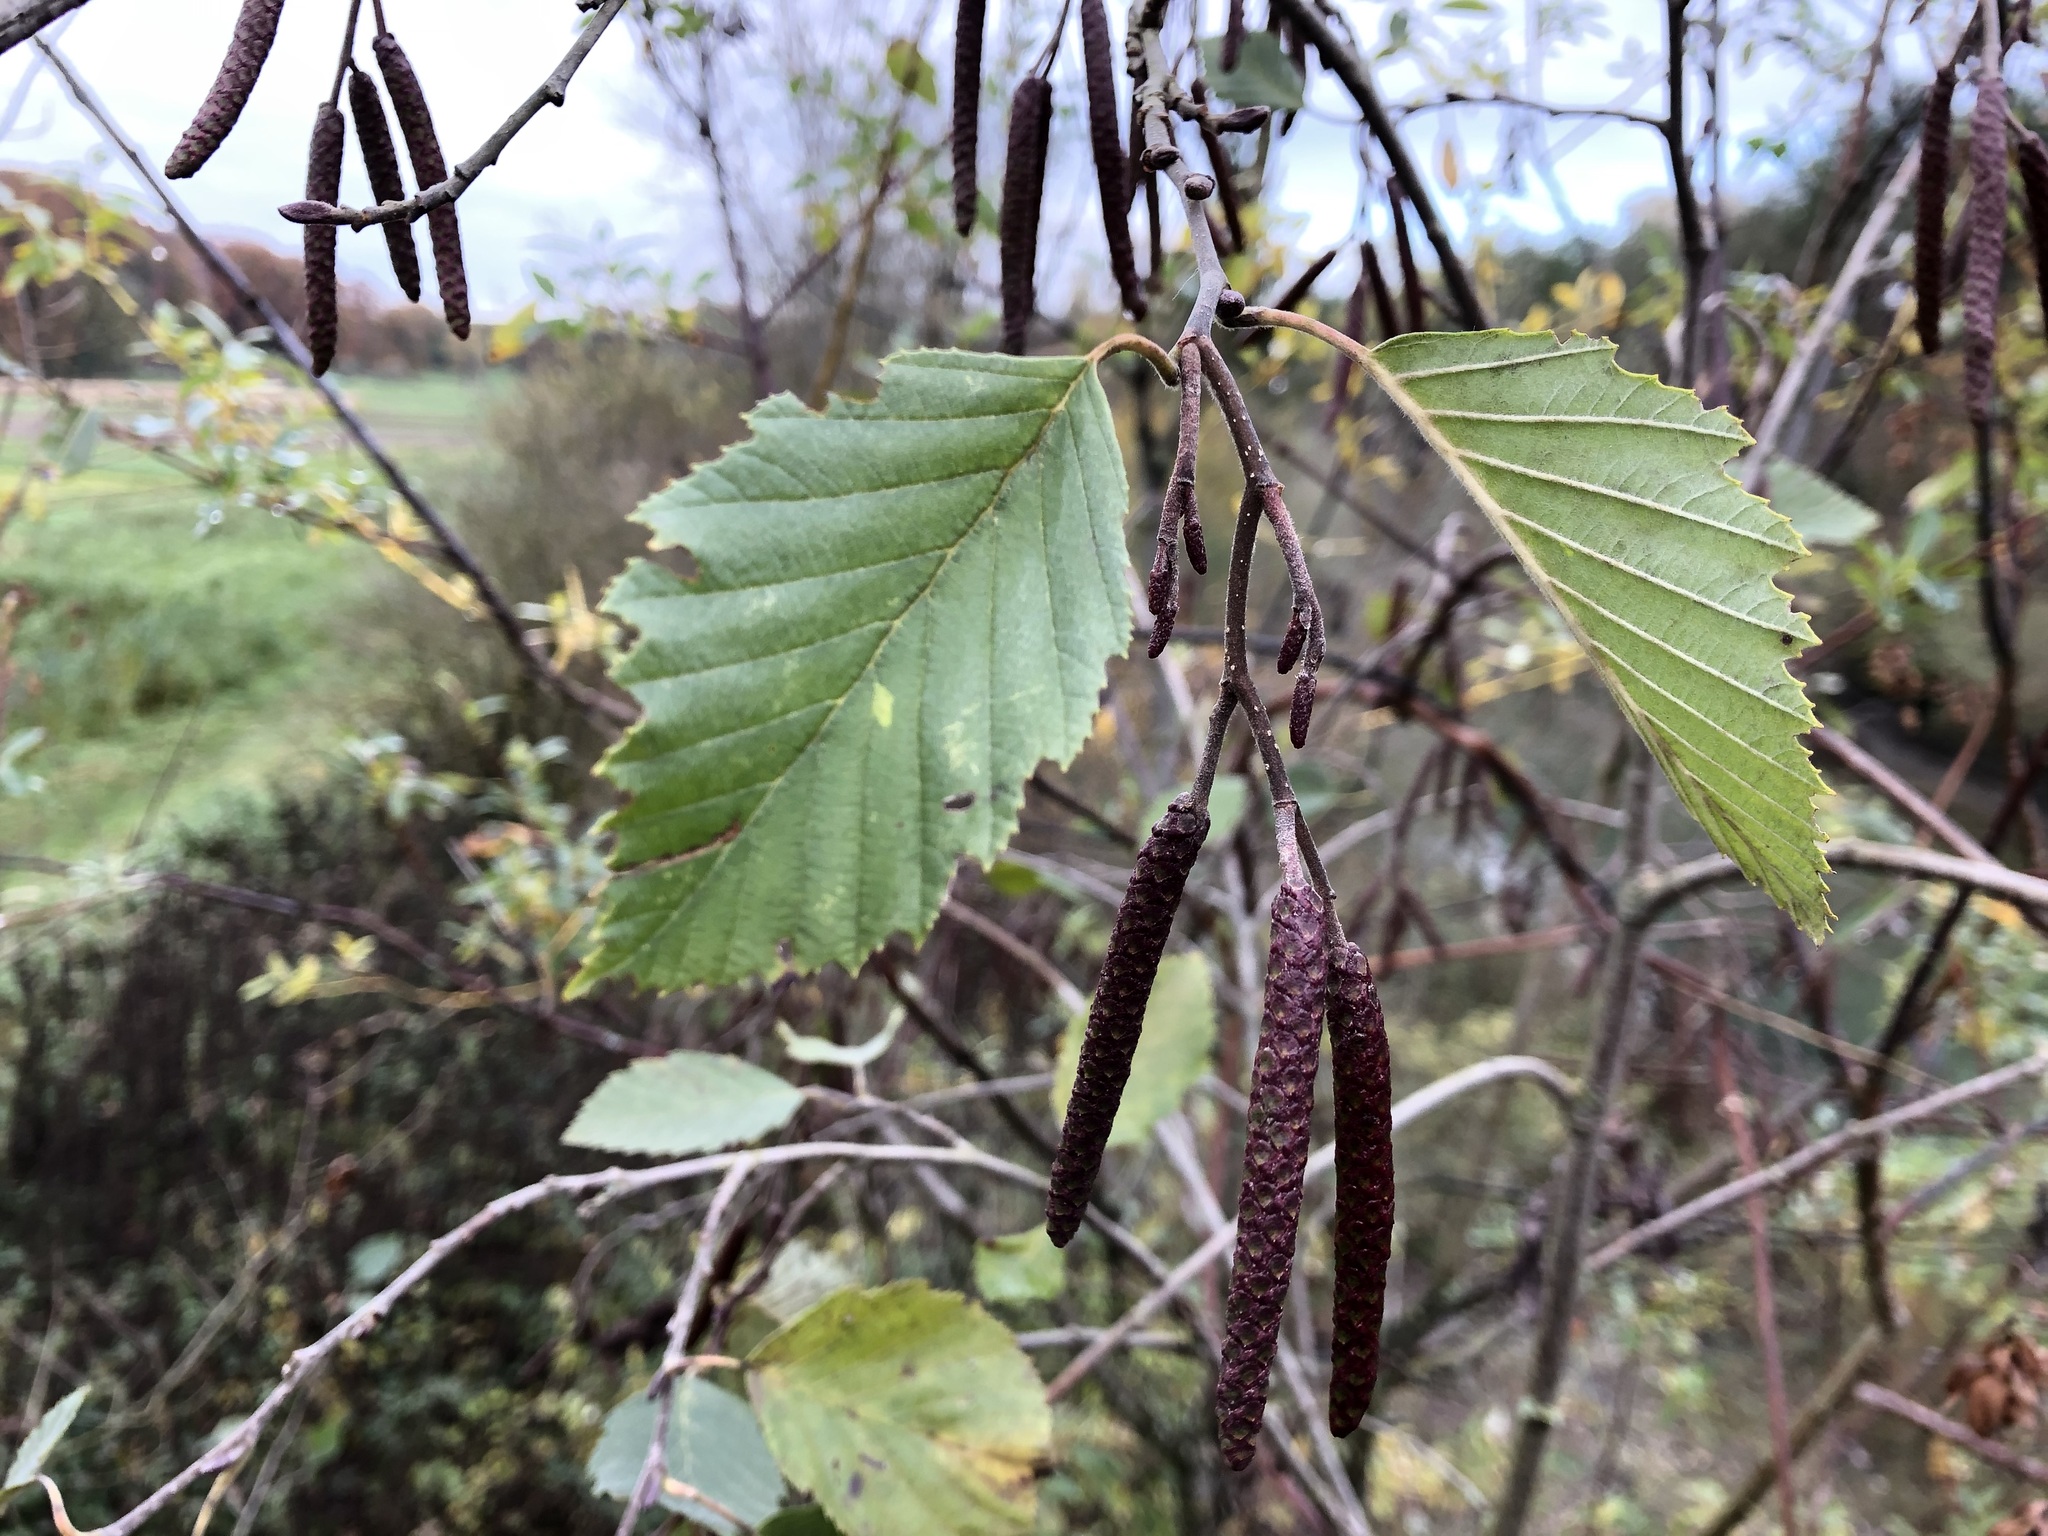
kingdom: Plantae
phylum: Tracheophyta
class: Magnoliopsida
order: Fagales
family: Betulaceae
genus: Alnus
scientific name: Alnus incana
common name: Grey alder
